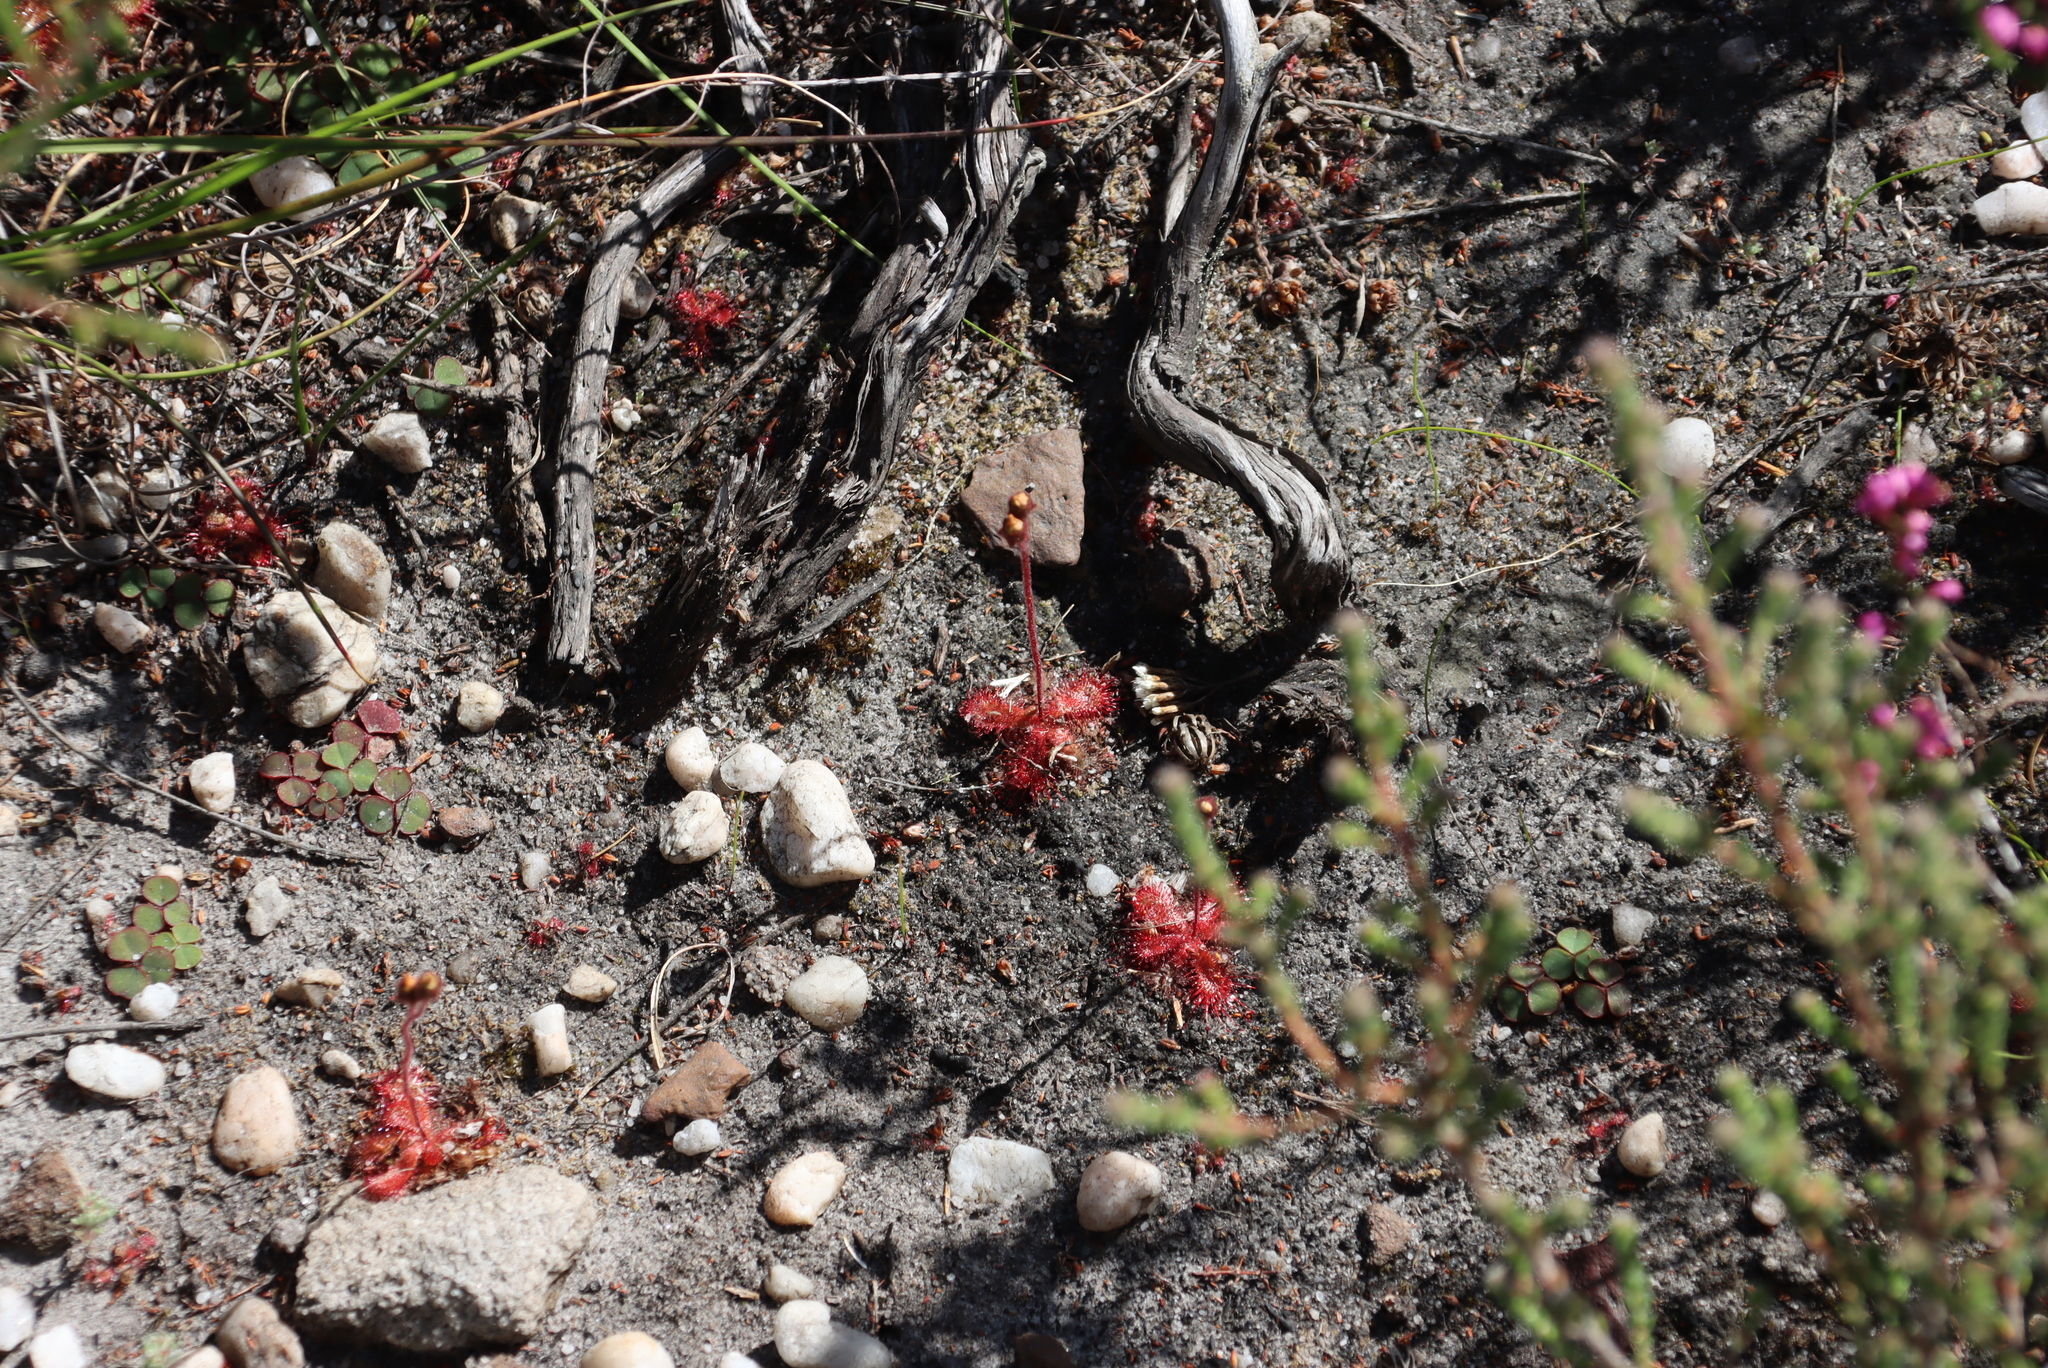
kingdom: Plantae
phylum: Tracheophyta
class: Magnoliopsida
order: Oxalidales
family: Oxalidaceae
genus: Oxalis
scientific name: Oxalis commutata
